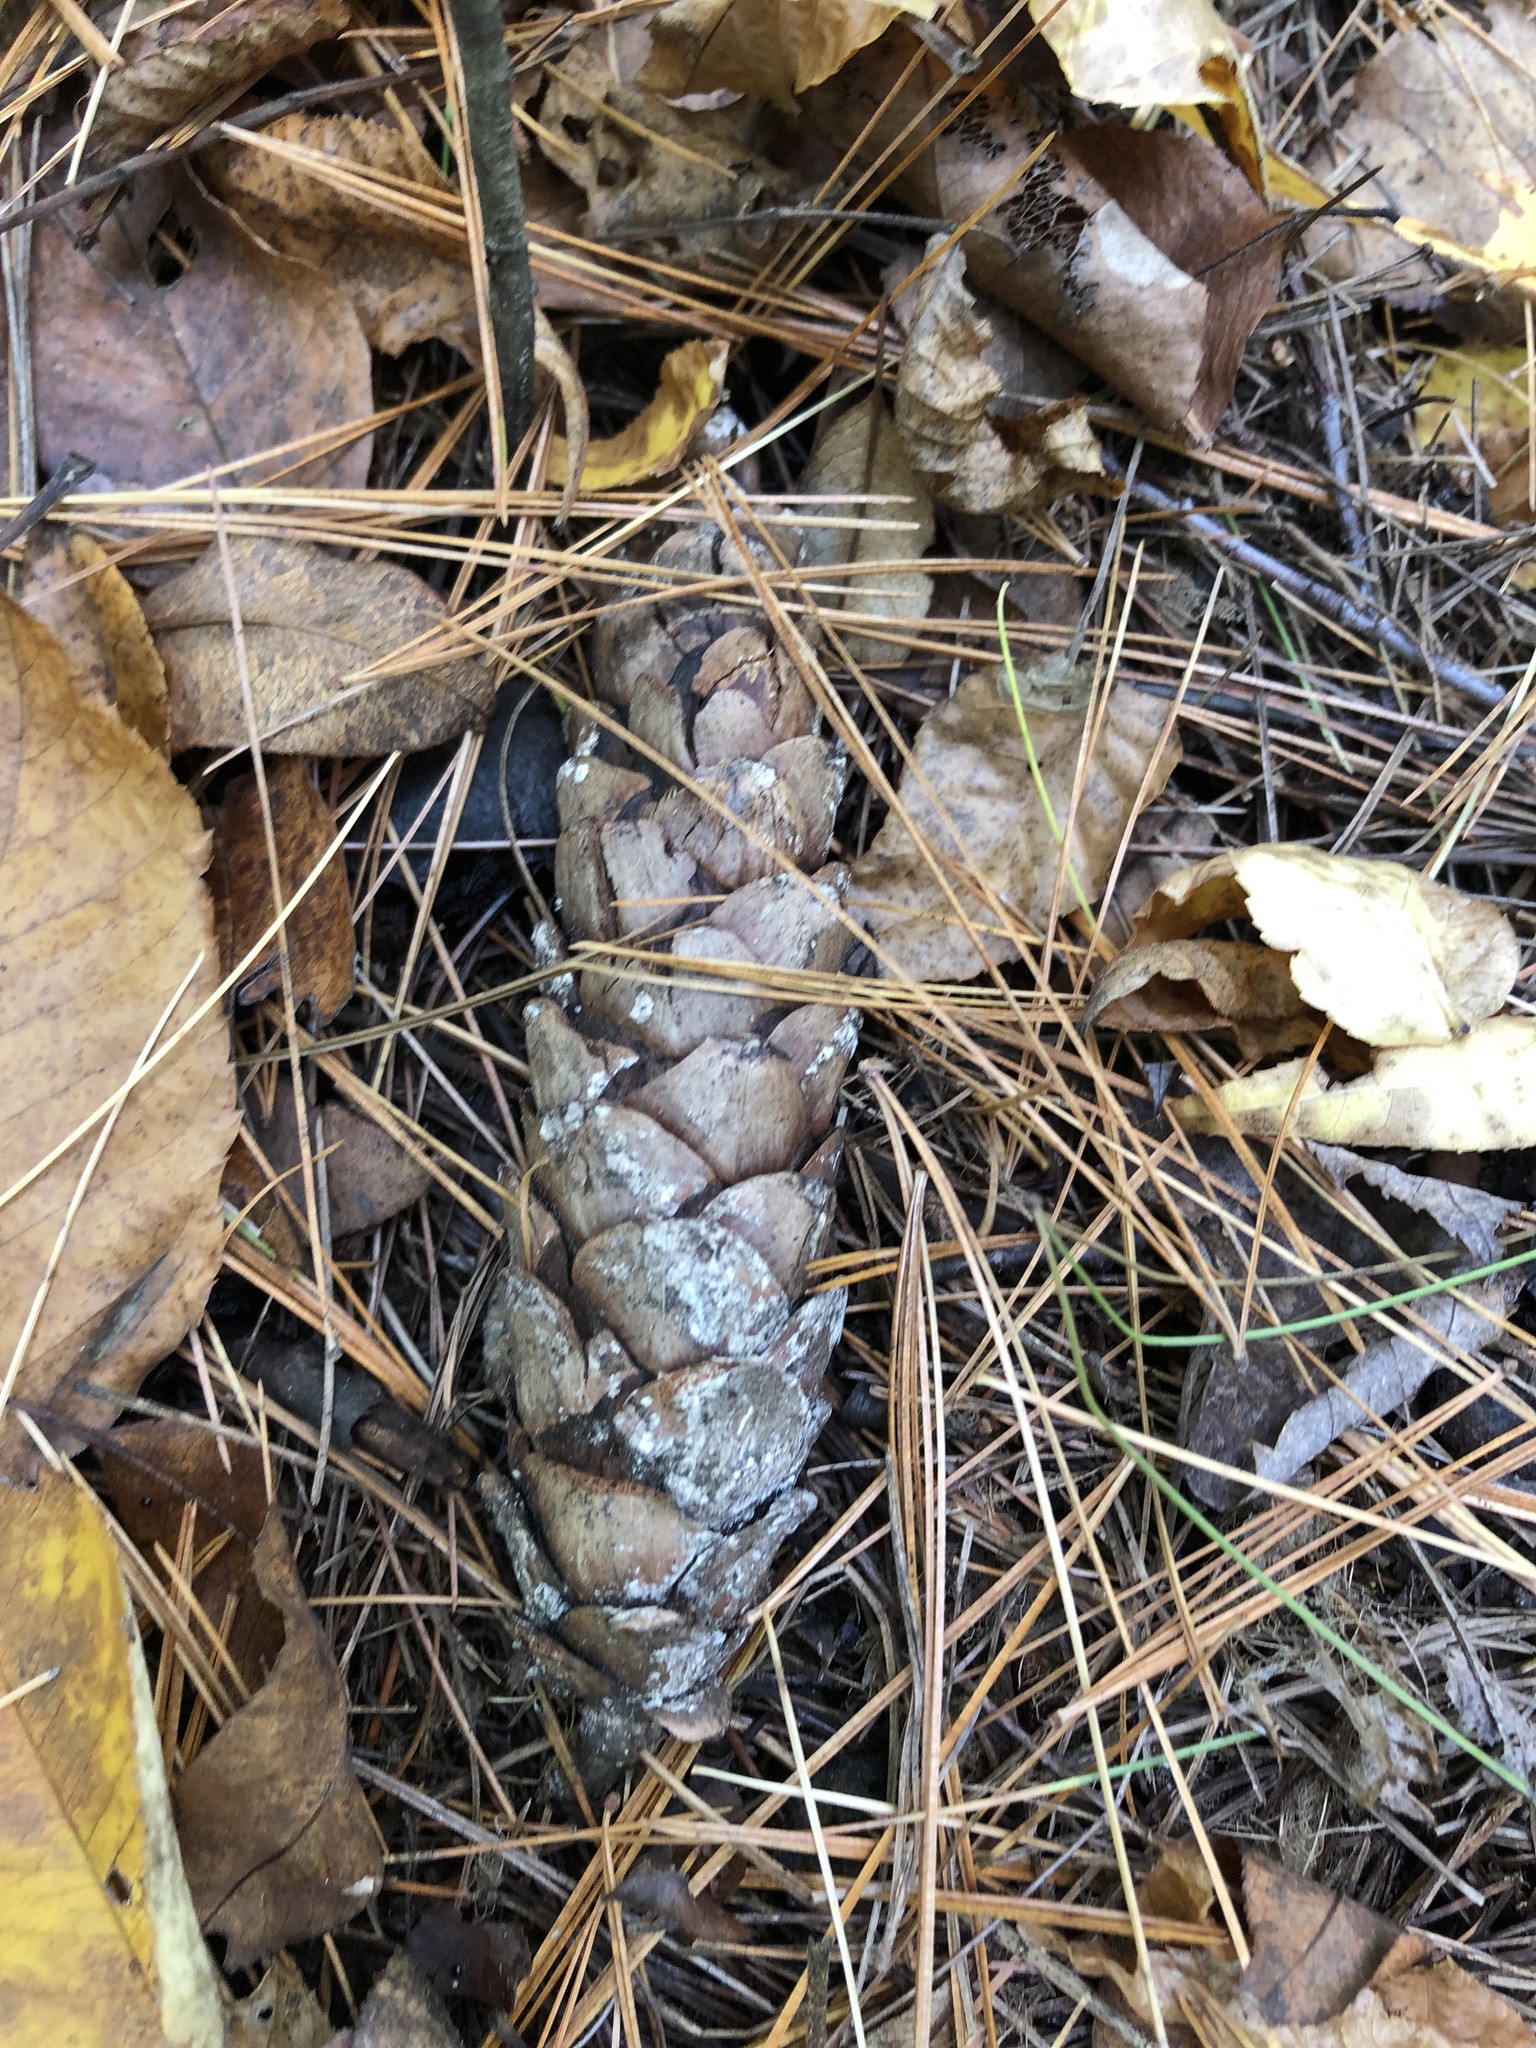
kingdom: Plantae
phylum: Tracheophyta
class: Pinopsida
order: Pinales
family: Pinaceae
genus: Pinus
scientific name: Pinus strobus
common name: Weymouth pine
